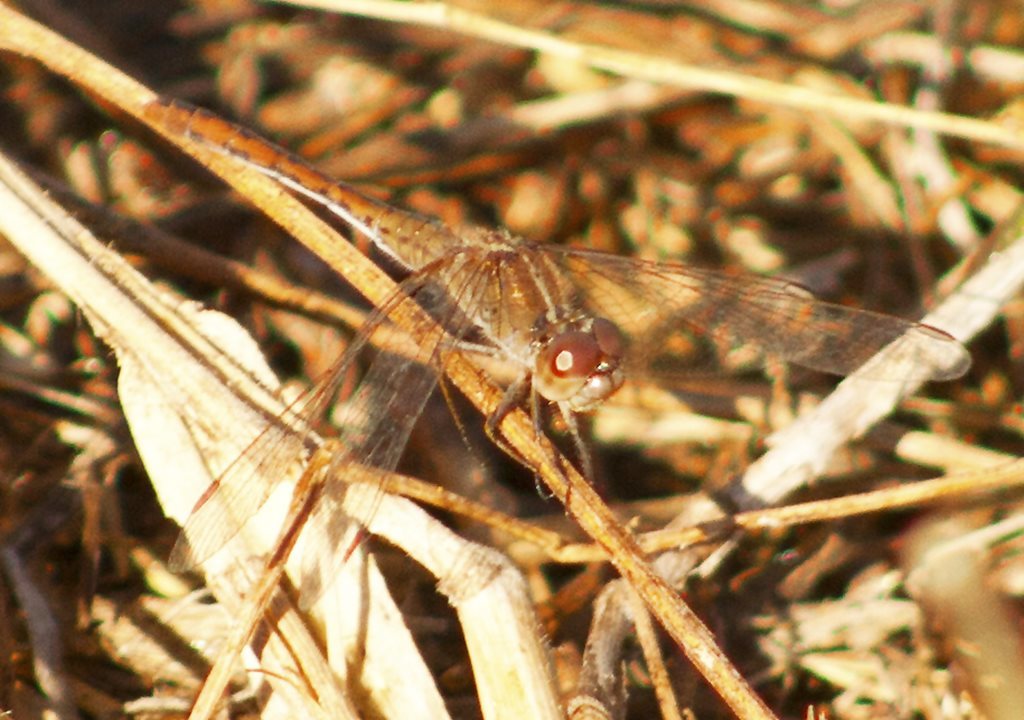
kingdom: Animalia
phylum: Arthropoda
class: Insecta
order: Odonata
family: Libellulidae
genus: Diplacodes
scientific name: Diplacodes bipunctata
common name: Red percher dragonfly
